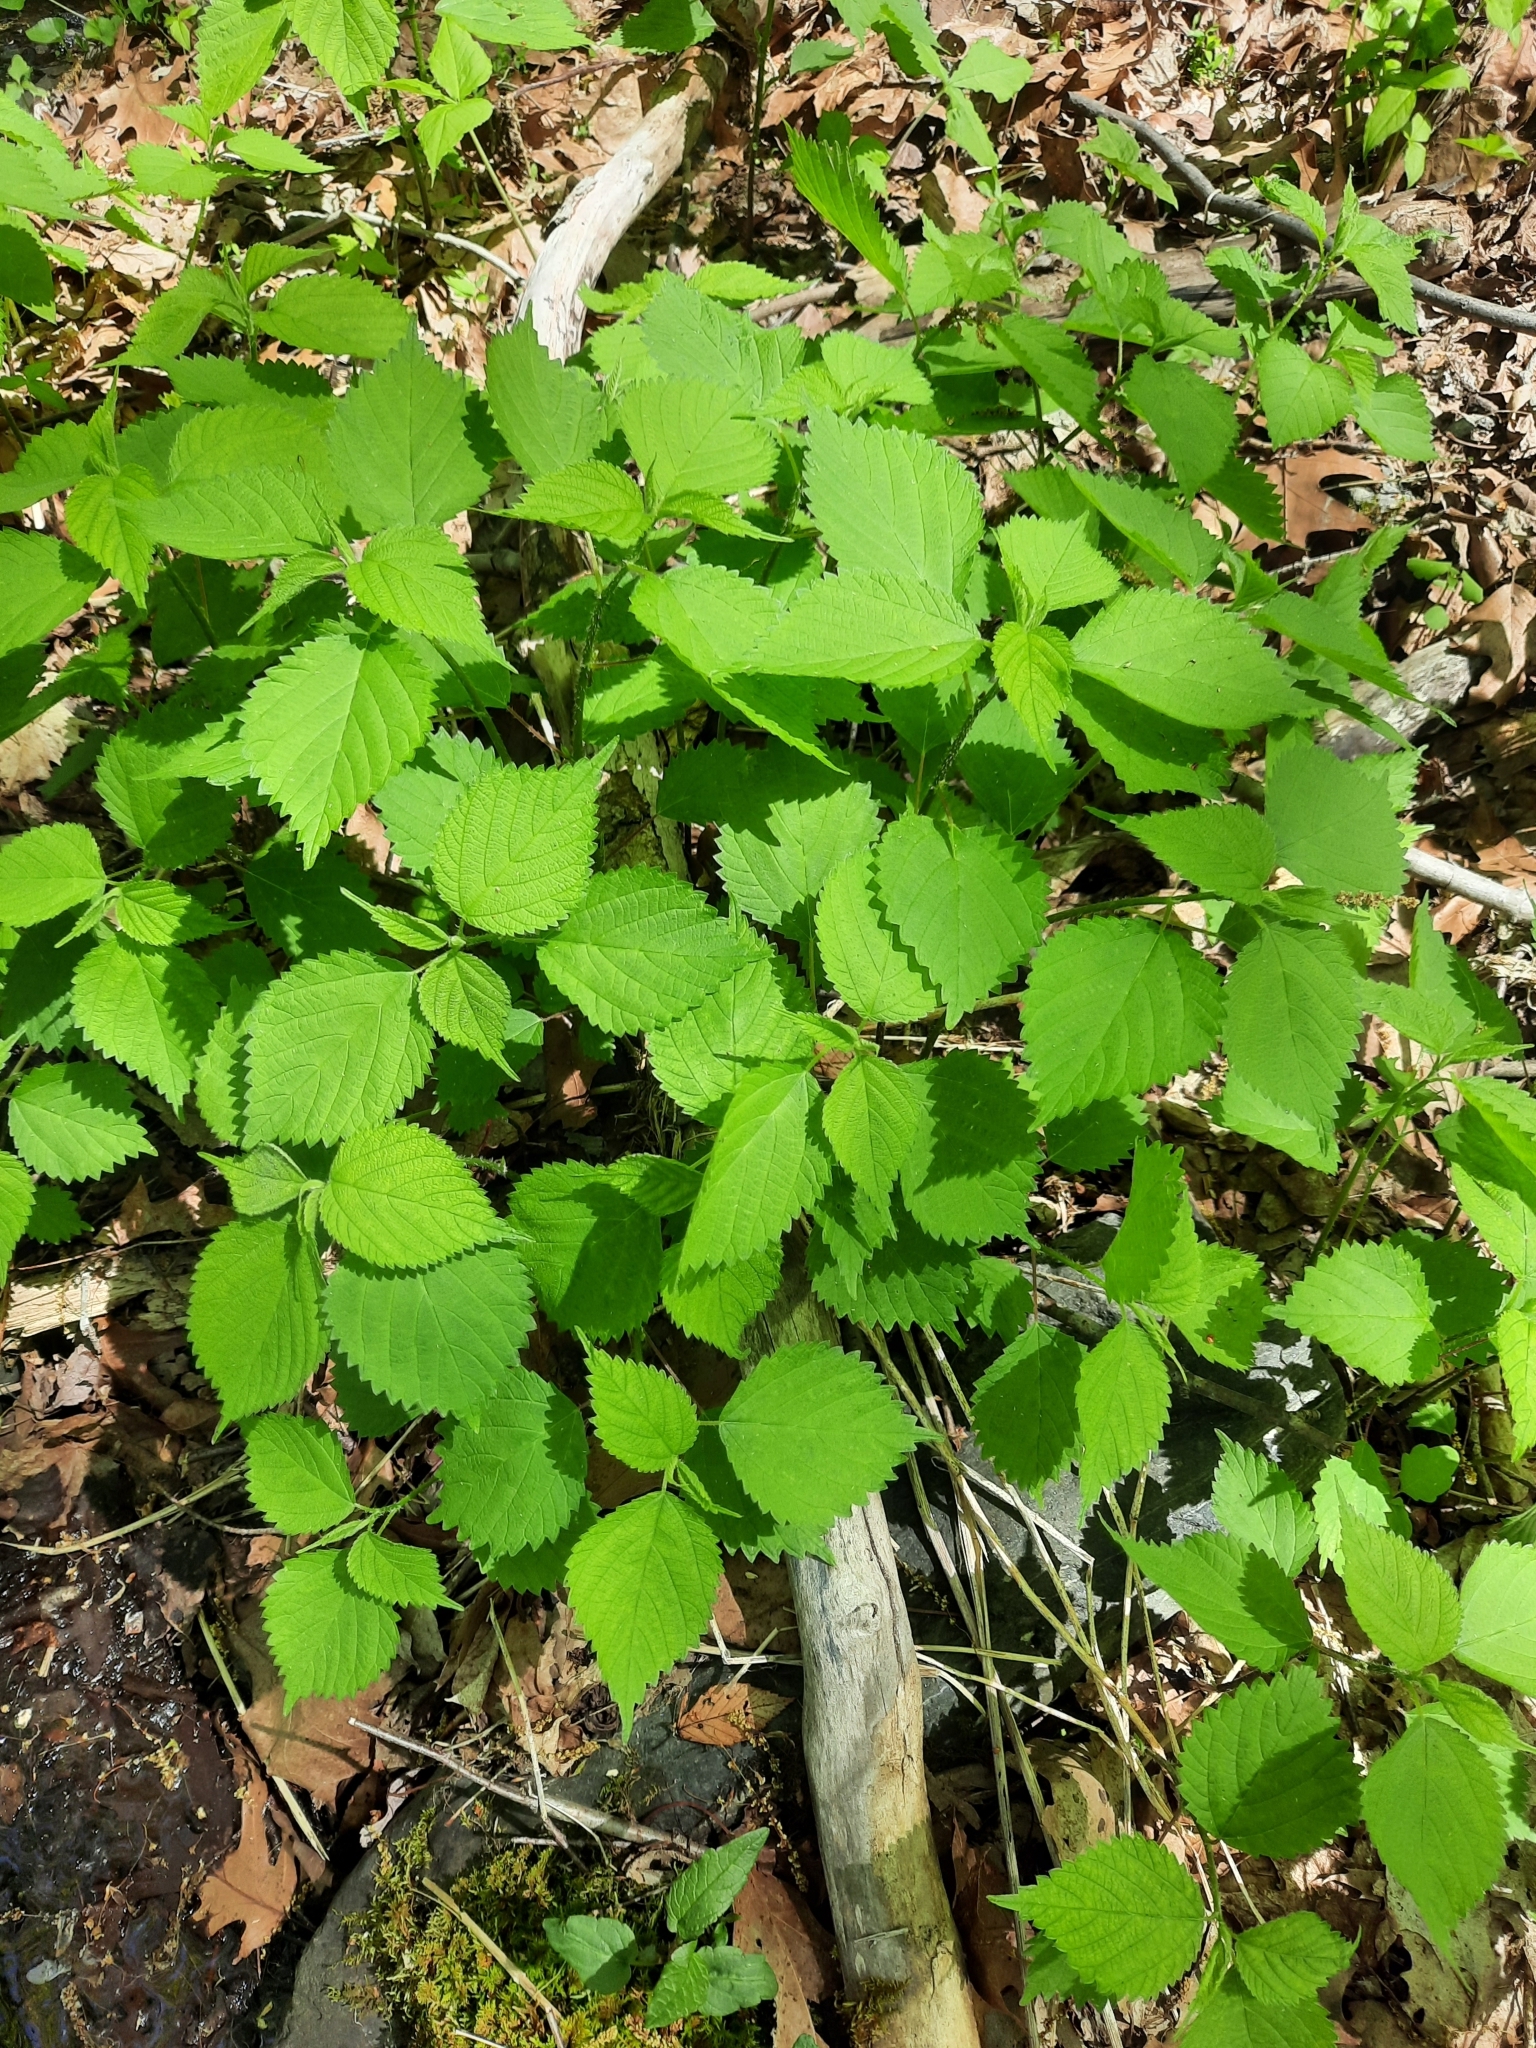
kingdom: Plantae
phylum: Tracheophyta
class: Magnoliopsida
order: Rosales
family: Urticaceae
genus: Laportea
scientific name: Laportea canadensis
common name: Canada nettle
